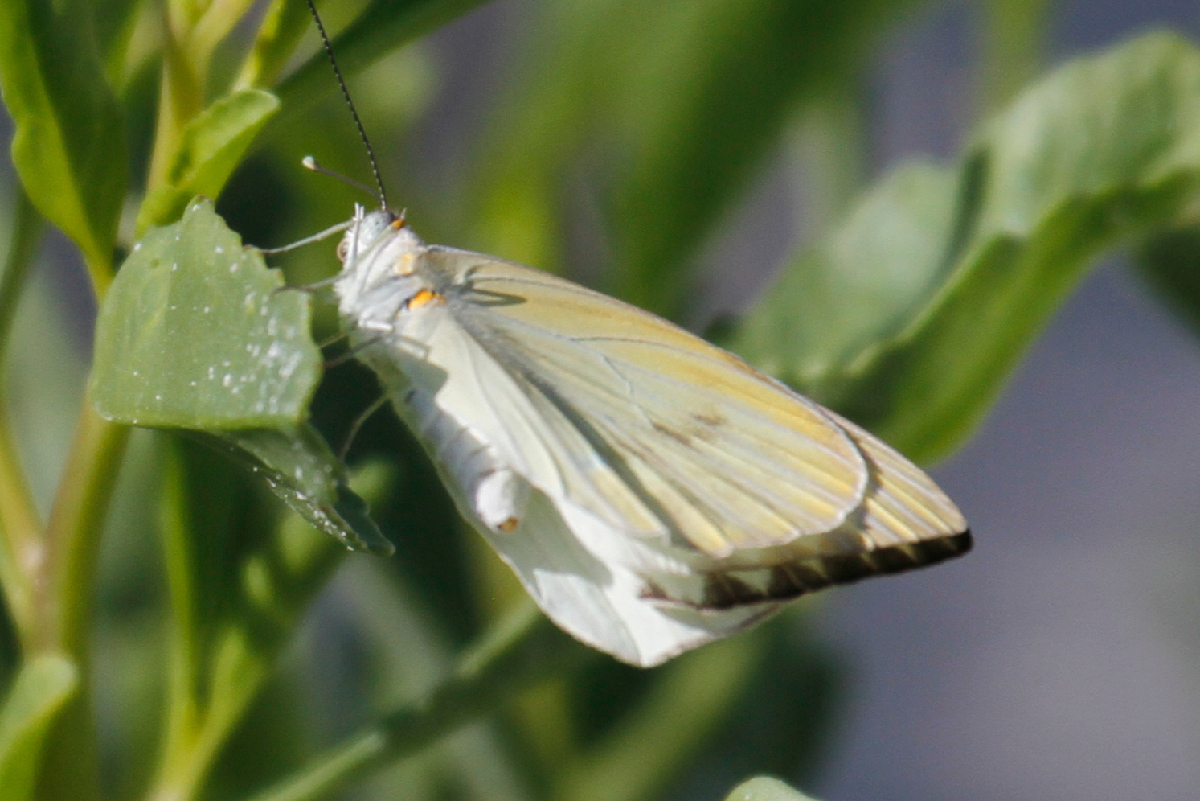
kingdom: Animalia
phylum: Arthropoda
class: Insecta
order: Lepidoptera
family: Pieridae
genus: Ascia
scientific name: Ascia monuste
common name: Great southern white
